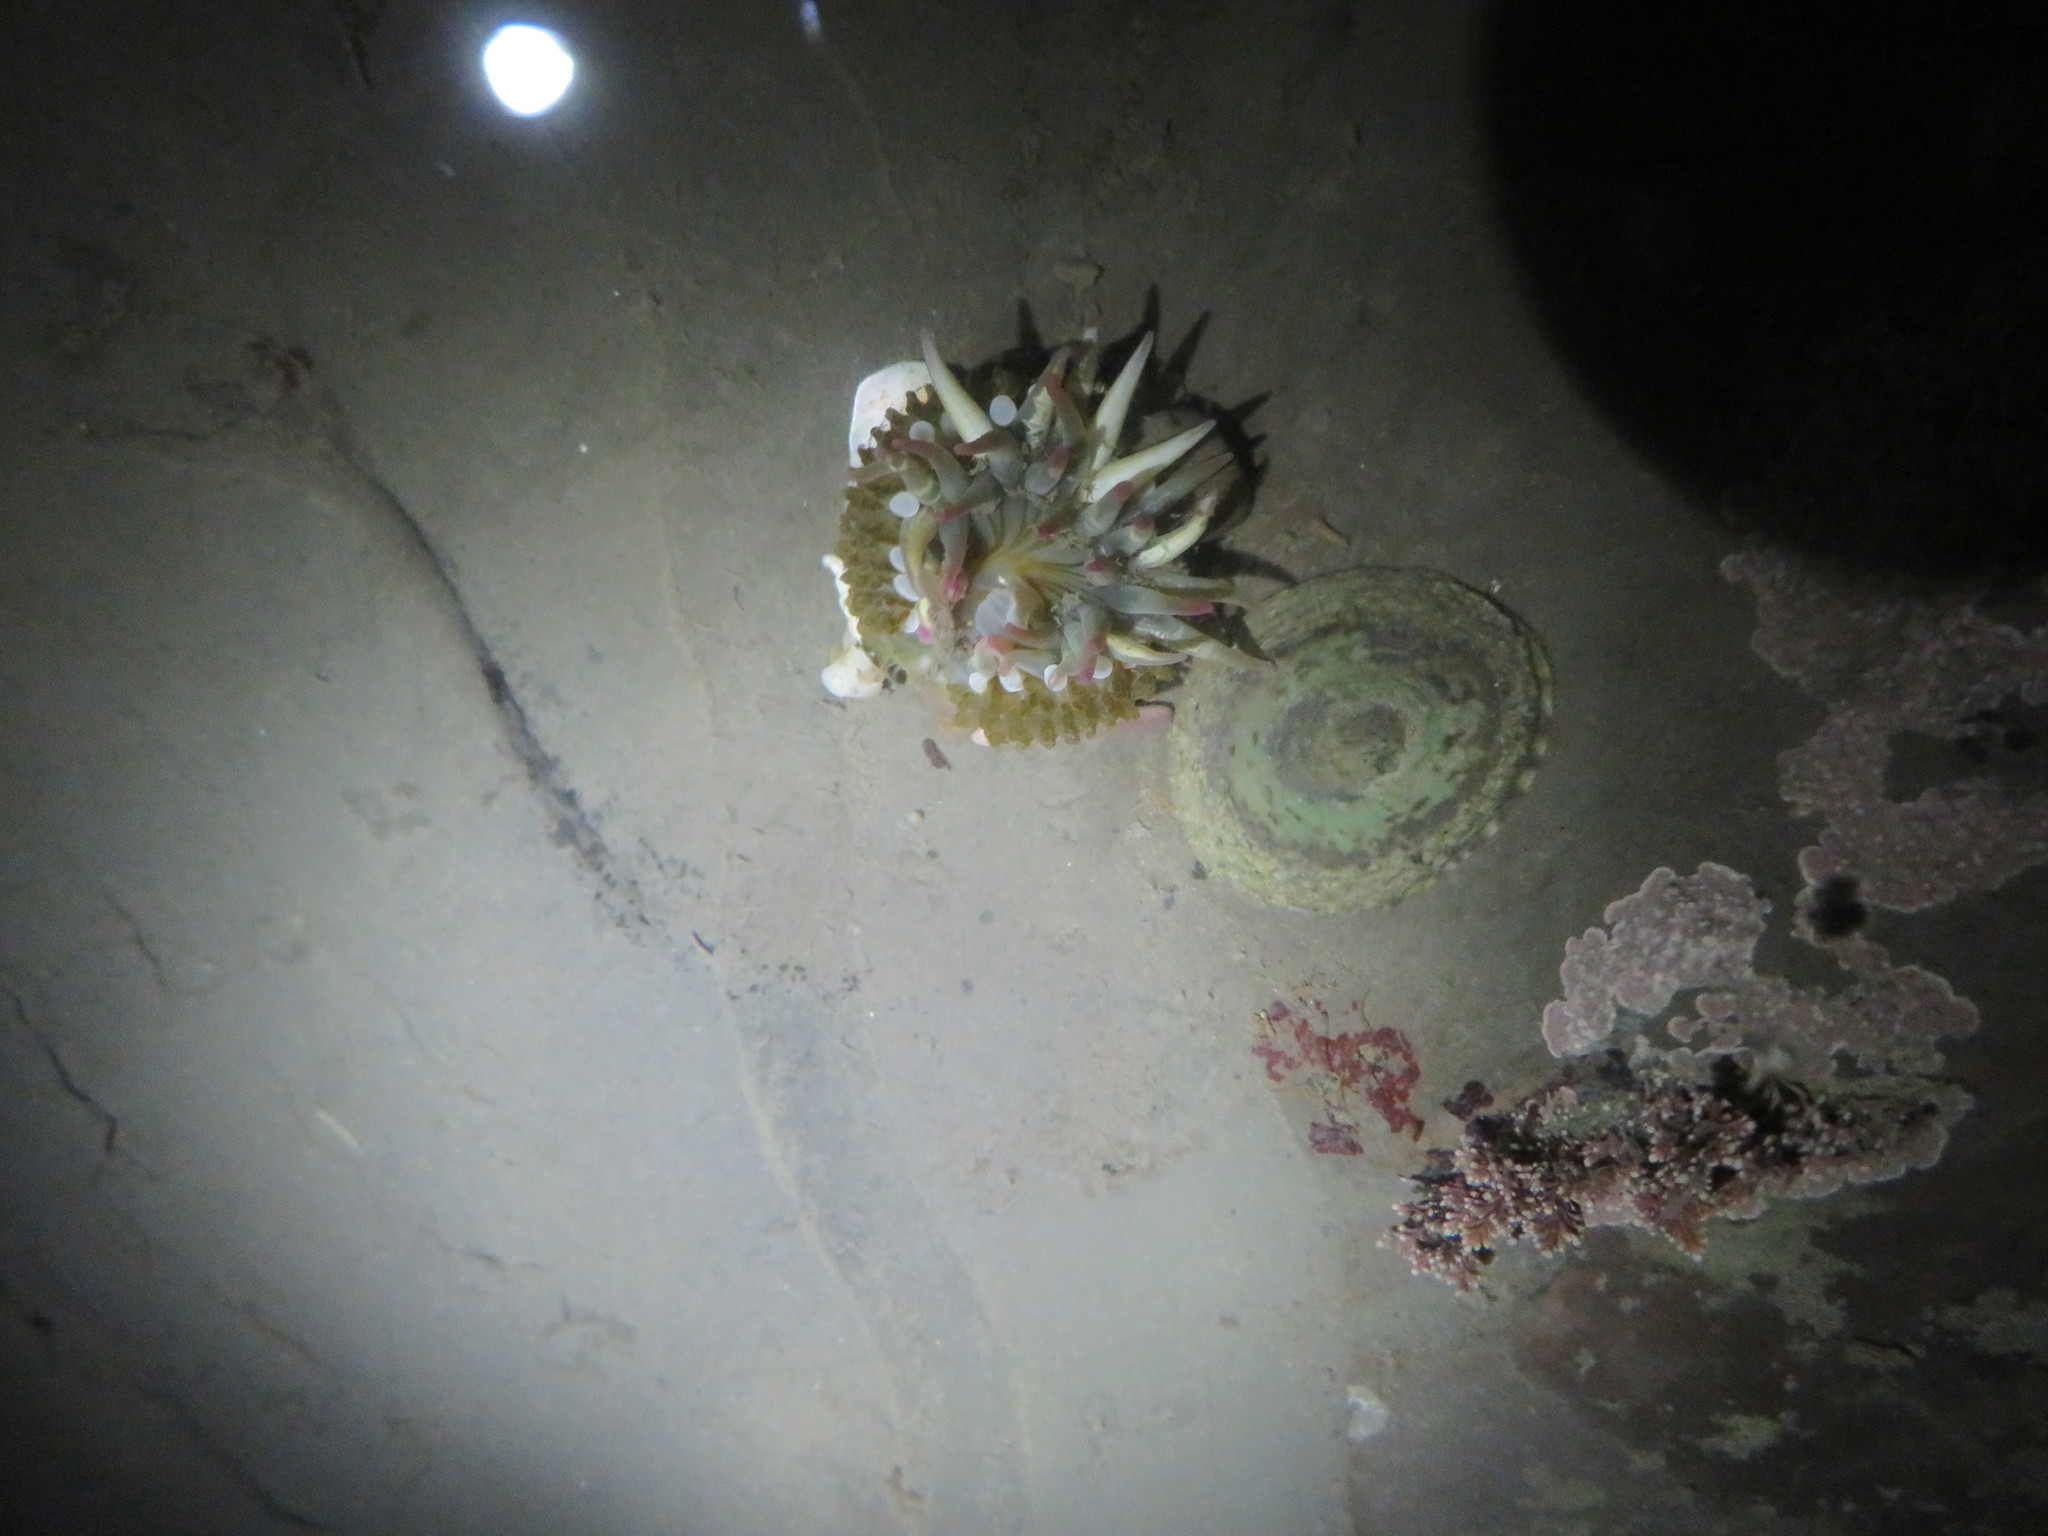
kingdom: Animalia
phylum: Cnidaria
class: Anthozoa
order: Actiniaria
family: Actiniidae
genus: Anthopleura
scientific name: Anthopleura elegantissima
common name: Clonal anemone
